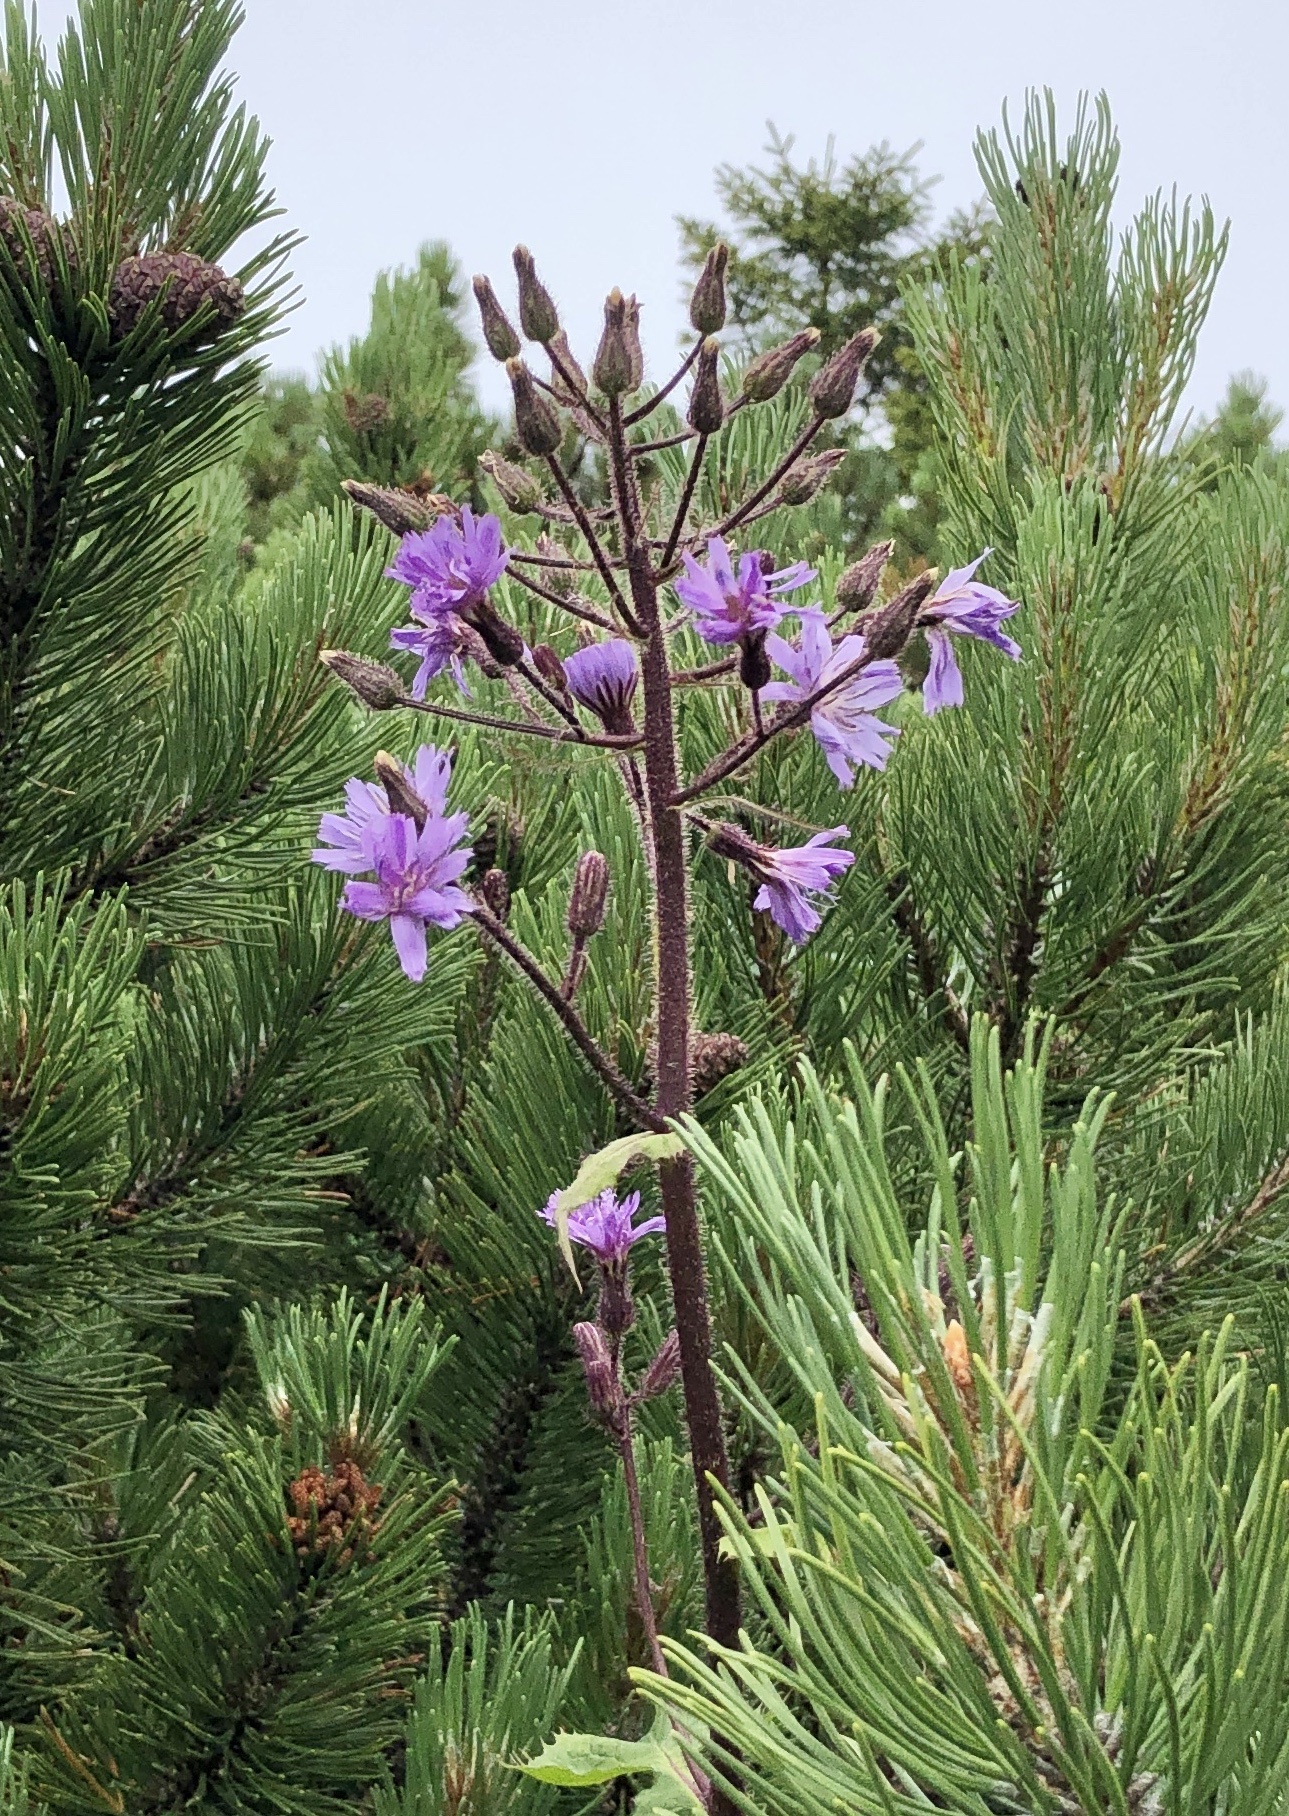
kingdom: Plantae
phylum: Tracheophyta
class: Magnoliopsida
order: Asterales
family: Asteraceae
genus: Cicerbita
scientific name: Cicerbita alpina
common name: Alpine blue-sow-thistle
